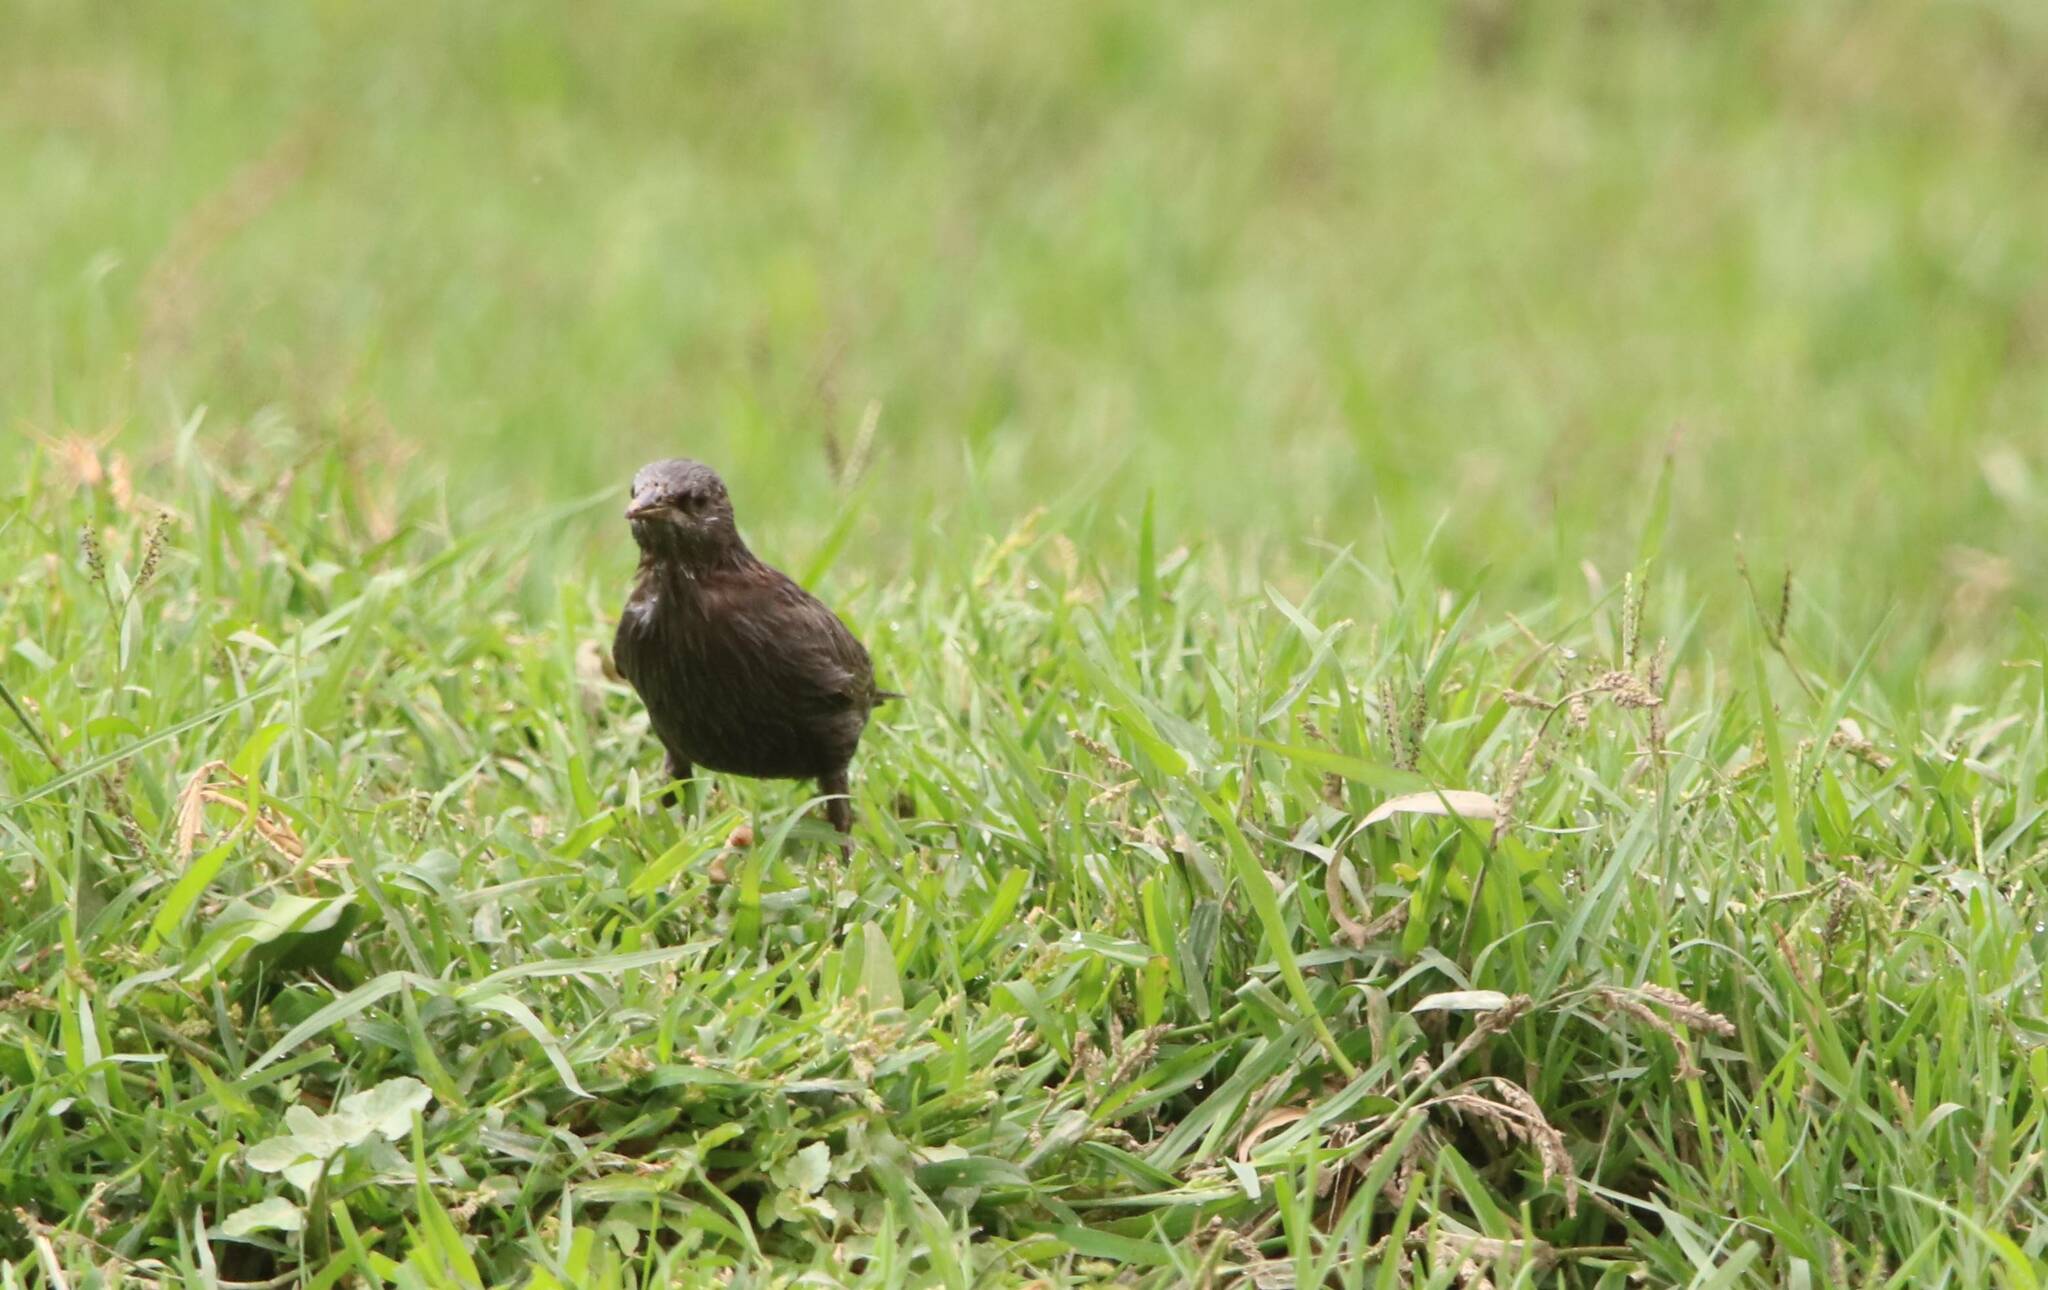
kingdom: Animalia
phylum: Chordata
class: Aves
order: Passeriformes
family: Sturnidae
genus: Sturnus
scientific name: Sturnus unicolor
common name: Spotless starling
